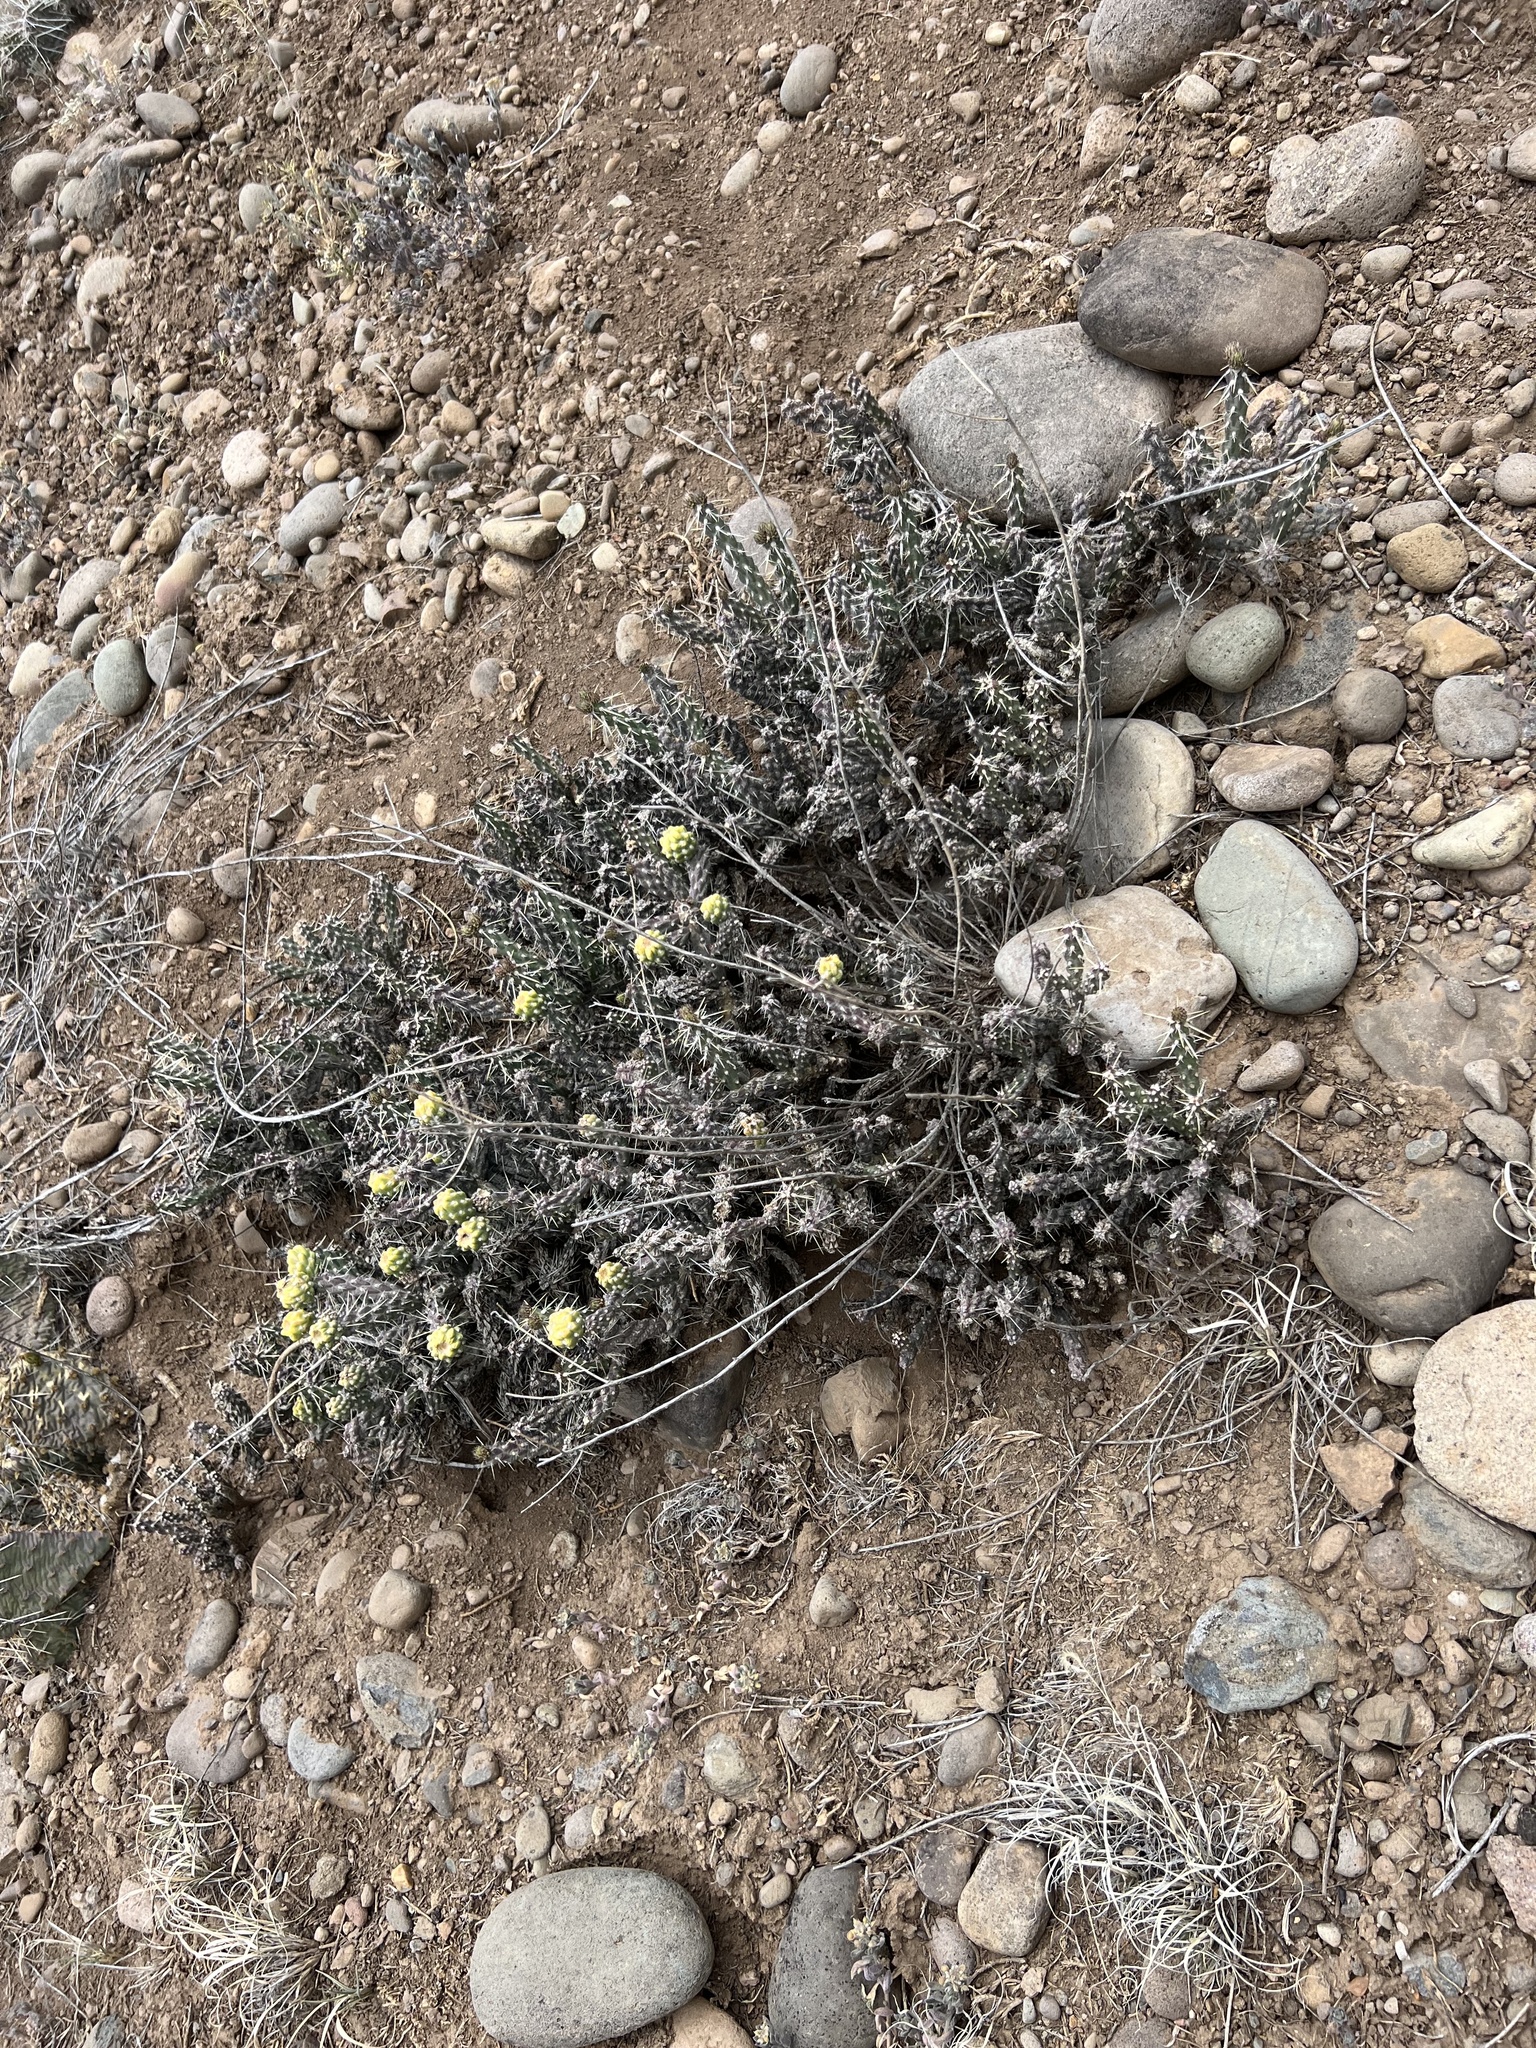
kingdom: Plantae
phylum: Tracheophyta
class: Magnoliopsida
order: Caryophyllales
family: Cactaceae
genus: Cylindropuntia
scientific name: Cylindropuntia whipplei
